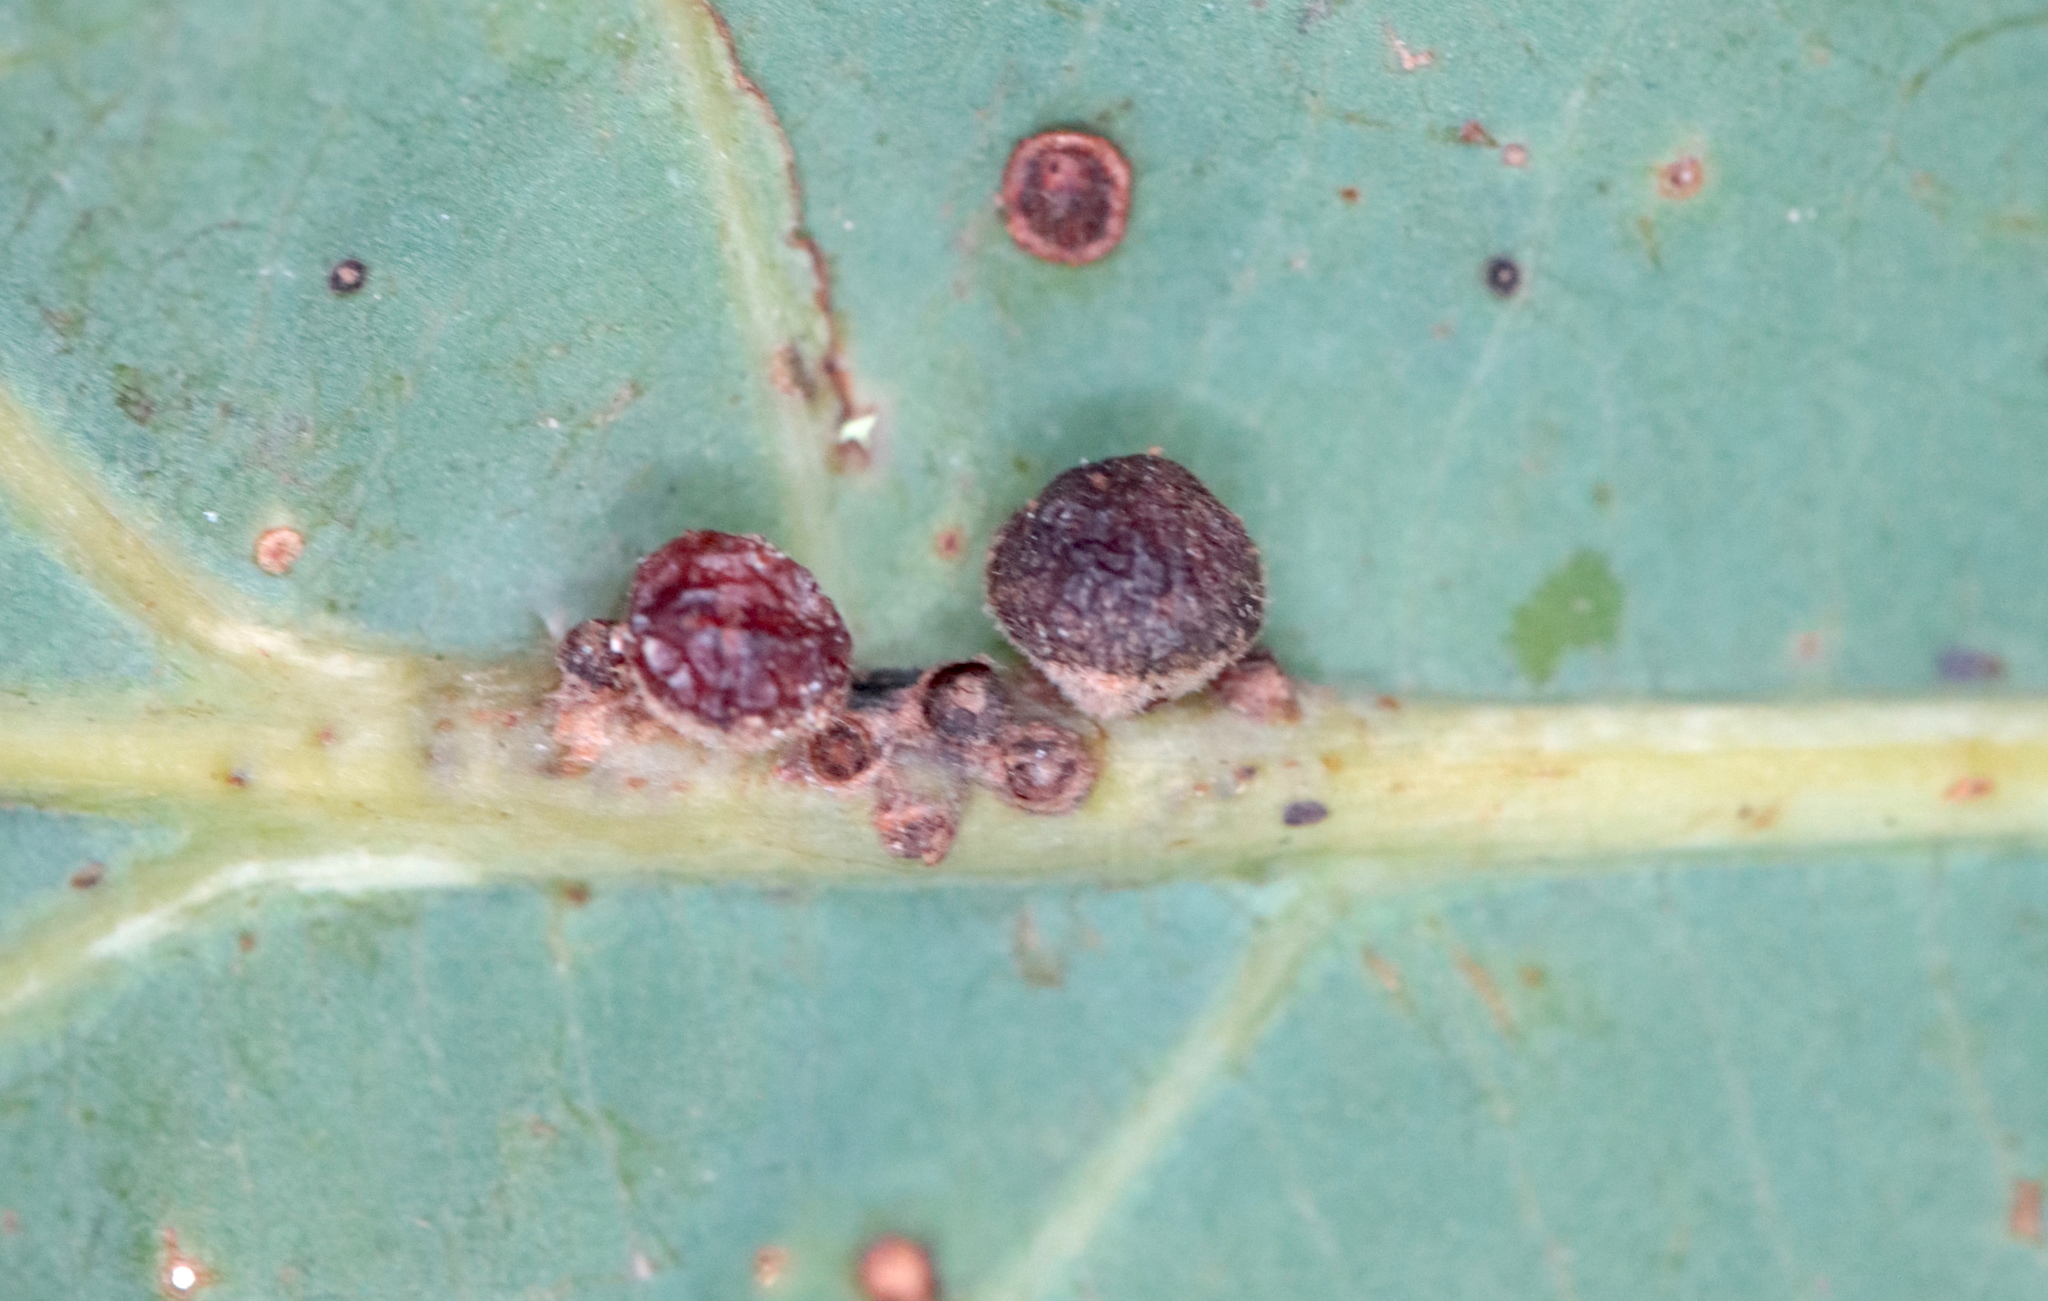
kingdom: Animalia
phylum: Arthropoda
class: Insecta
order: Hymenoptera
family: Cynipidae
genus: Andricus
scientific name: Andricus
